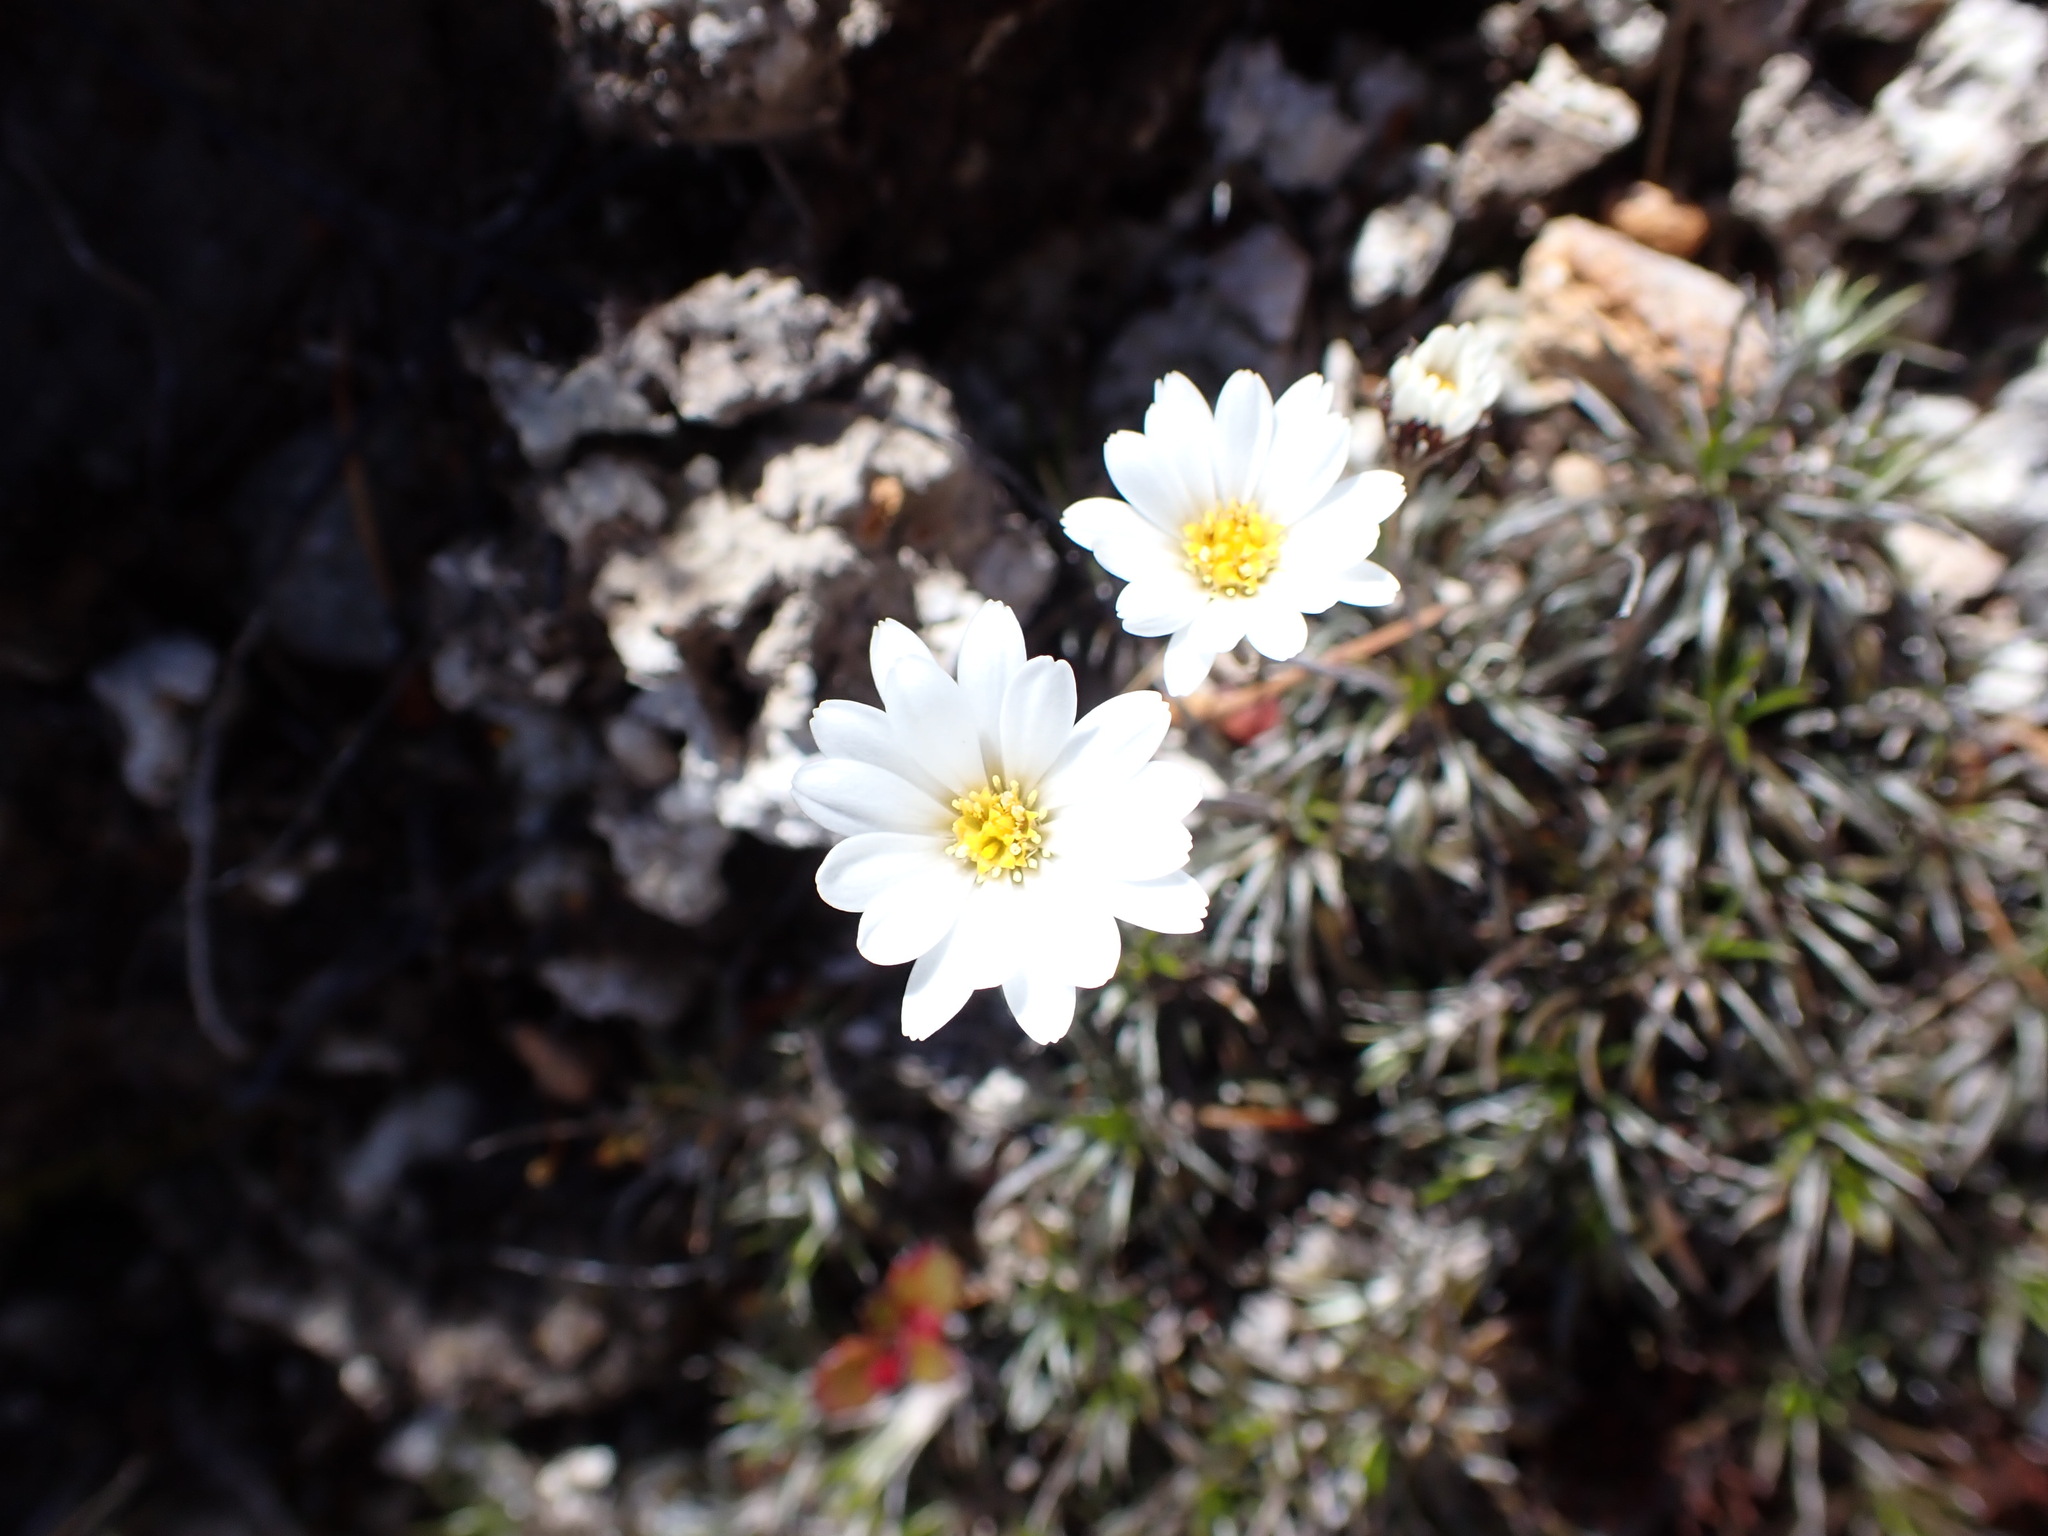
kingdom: Plantae
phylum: Tracheophyta
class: Magnoliopsida
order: Asterales
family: Asteraceae
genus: Celmisia
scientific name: Celmisia laricifolia
